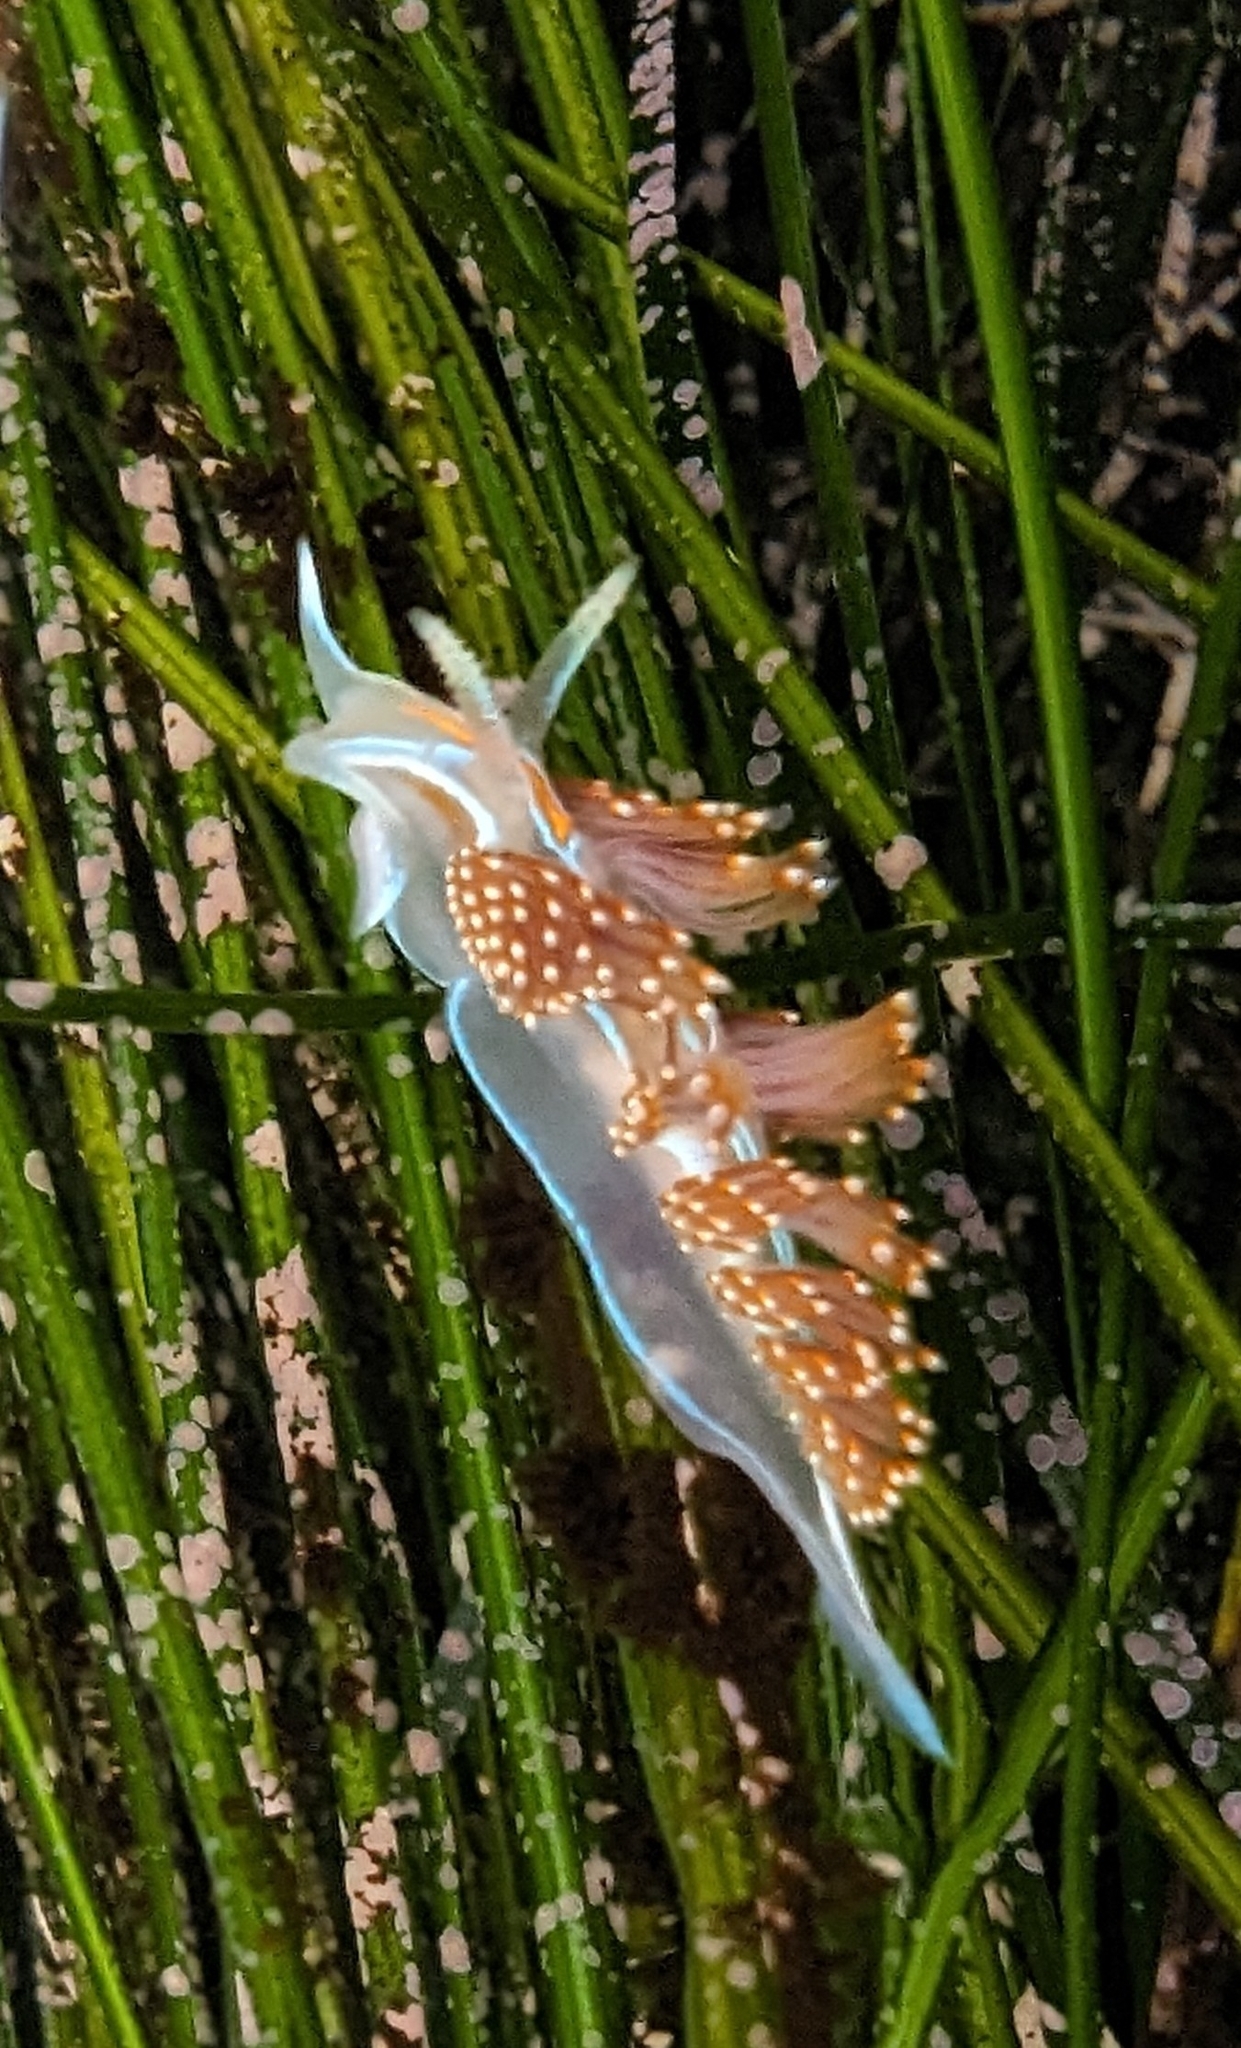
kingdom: Animalia
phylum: Mollusca
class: Gastropoda
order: Nudibranchia
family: Myrrhinidae
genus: Hermissenda
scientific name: Hermissenda opalescens
